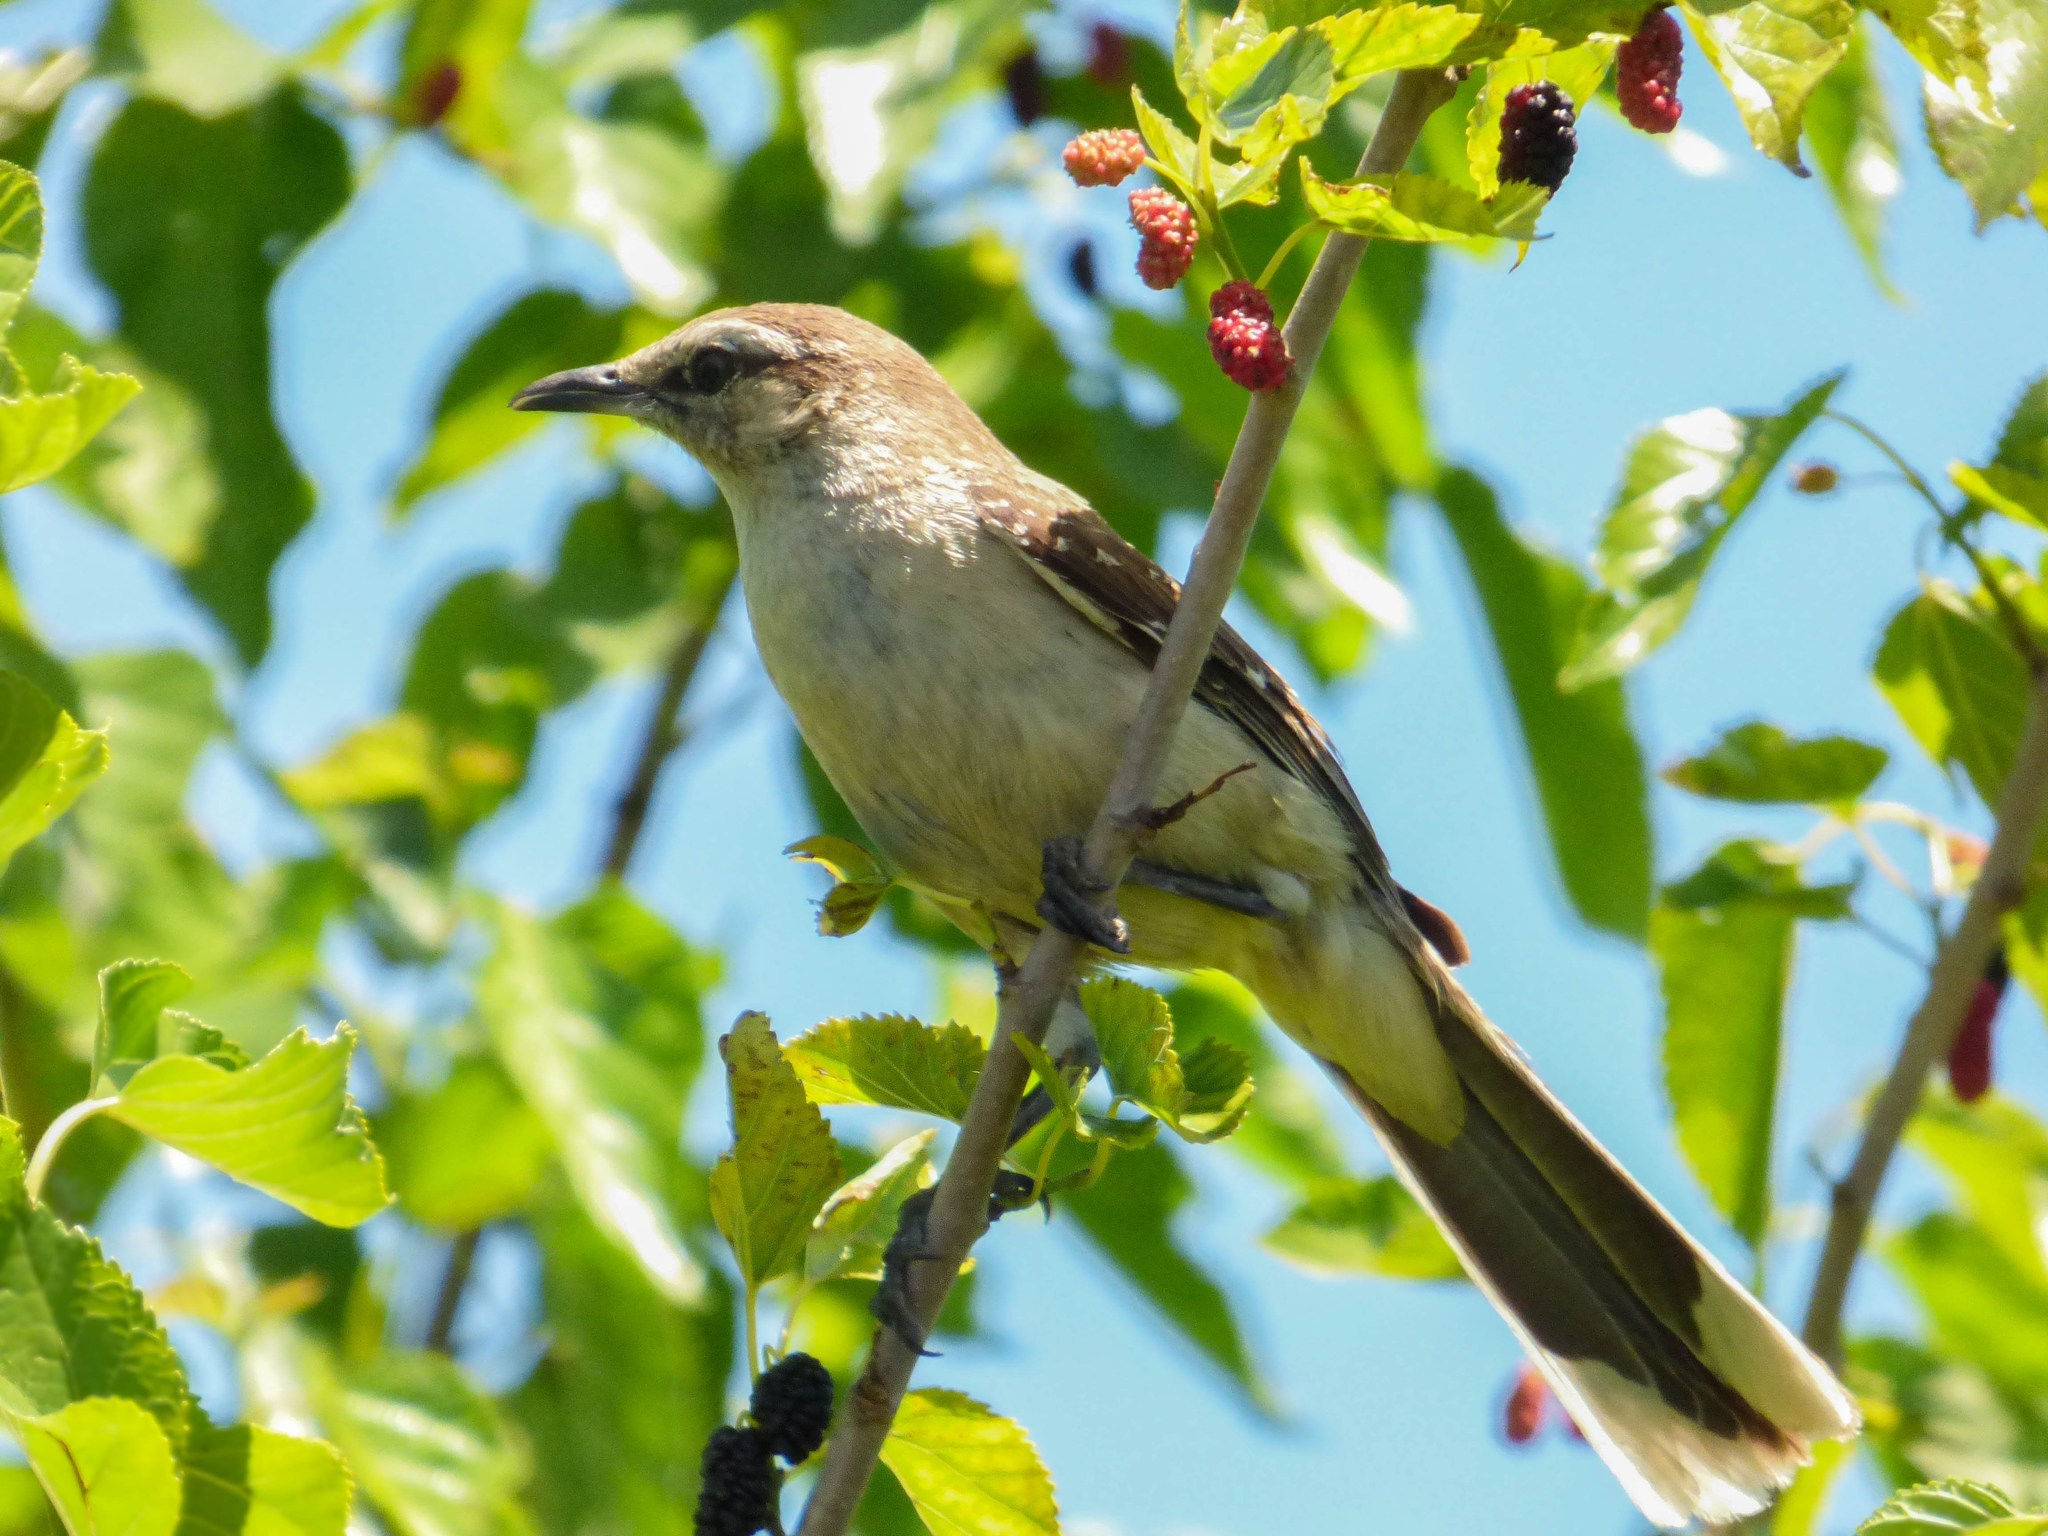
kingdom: Animalia
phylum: Chordata
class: Aves
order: Passeriformes
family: Mimidae
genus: Mimus
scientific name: Mimus saturninus
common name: Chalk-browed mockingbird
